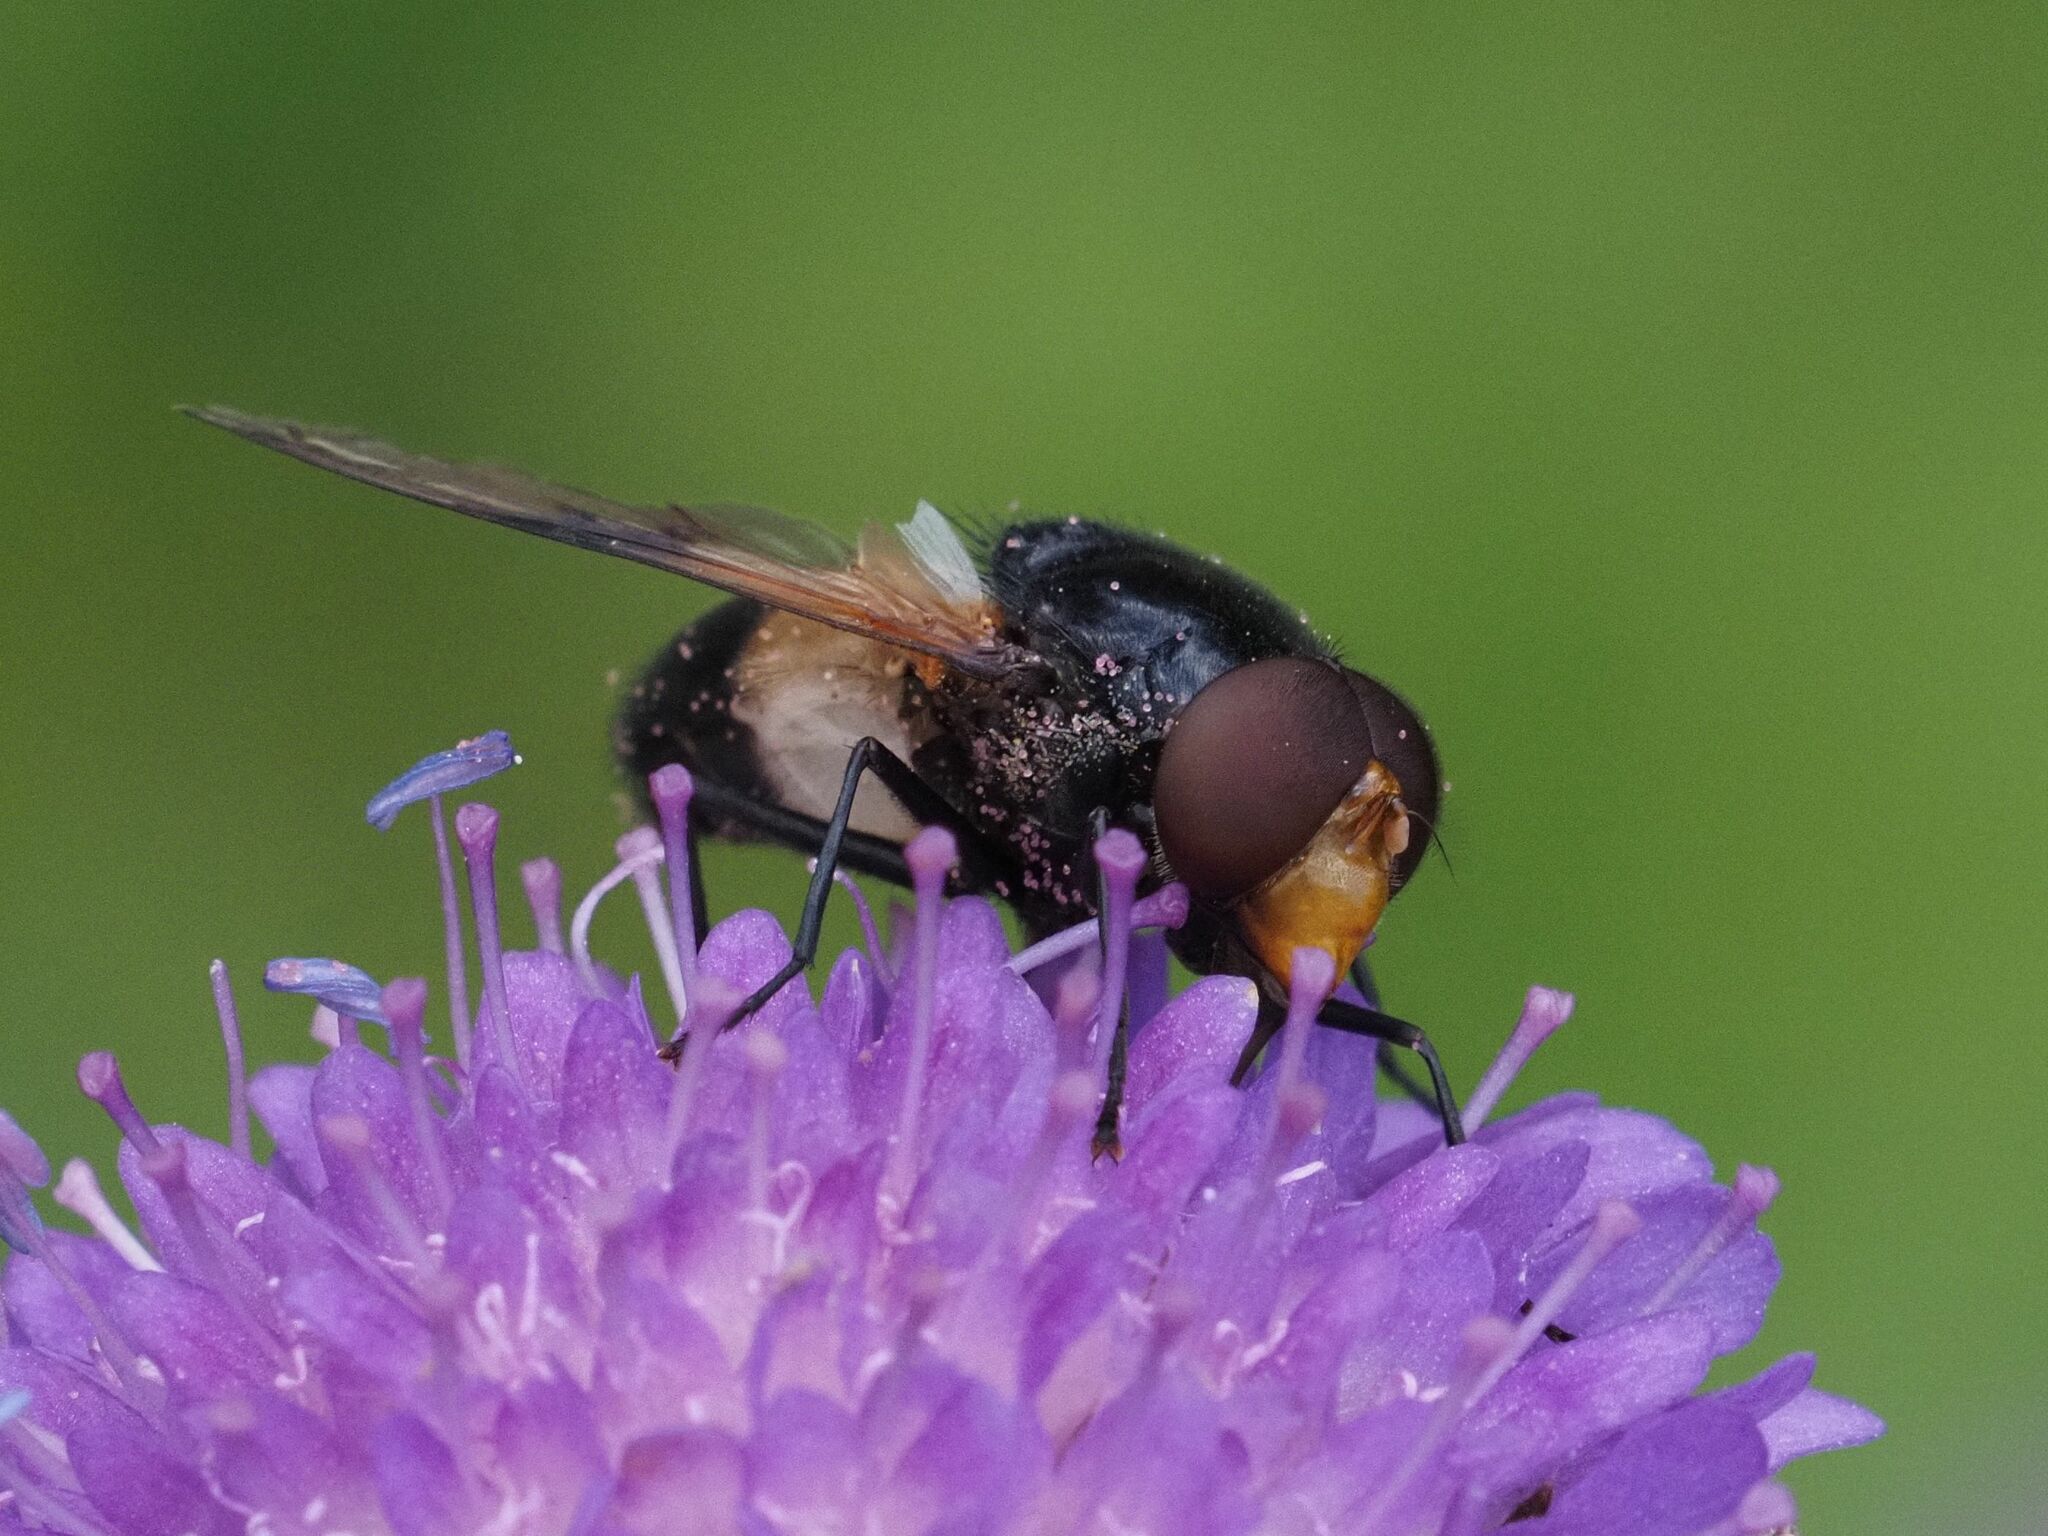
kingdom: Animalia
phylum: Arthropoda
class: Insecta
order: Diptera
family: Syrphidae
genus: Volucella
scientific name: Volucella pellucens
